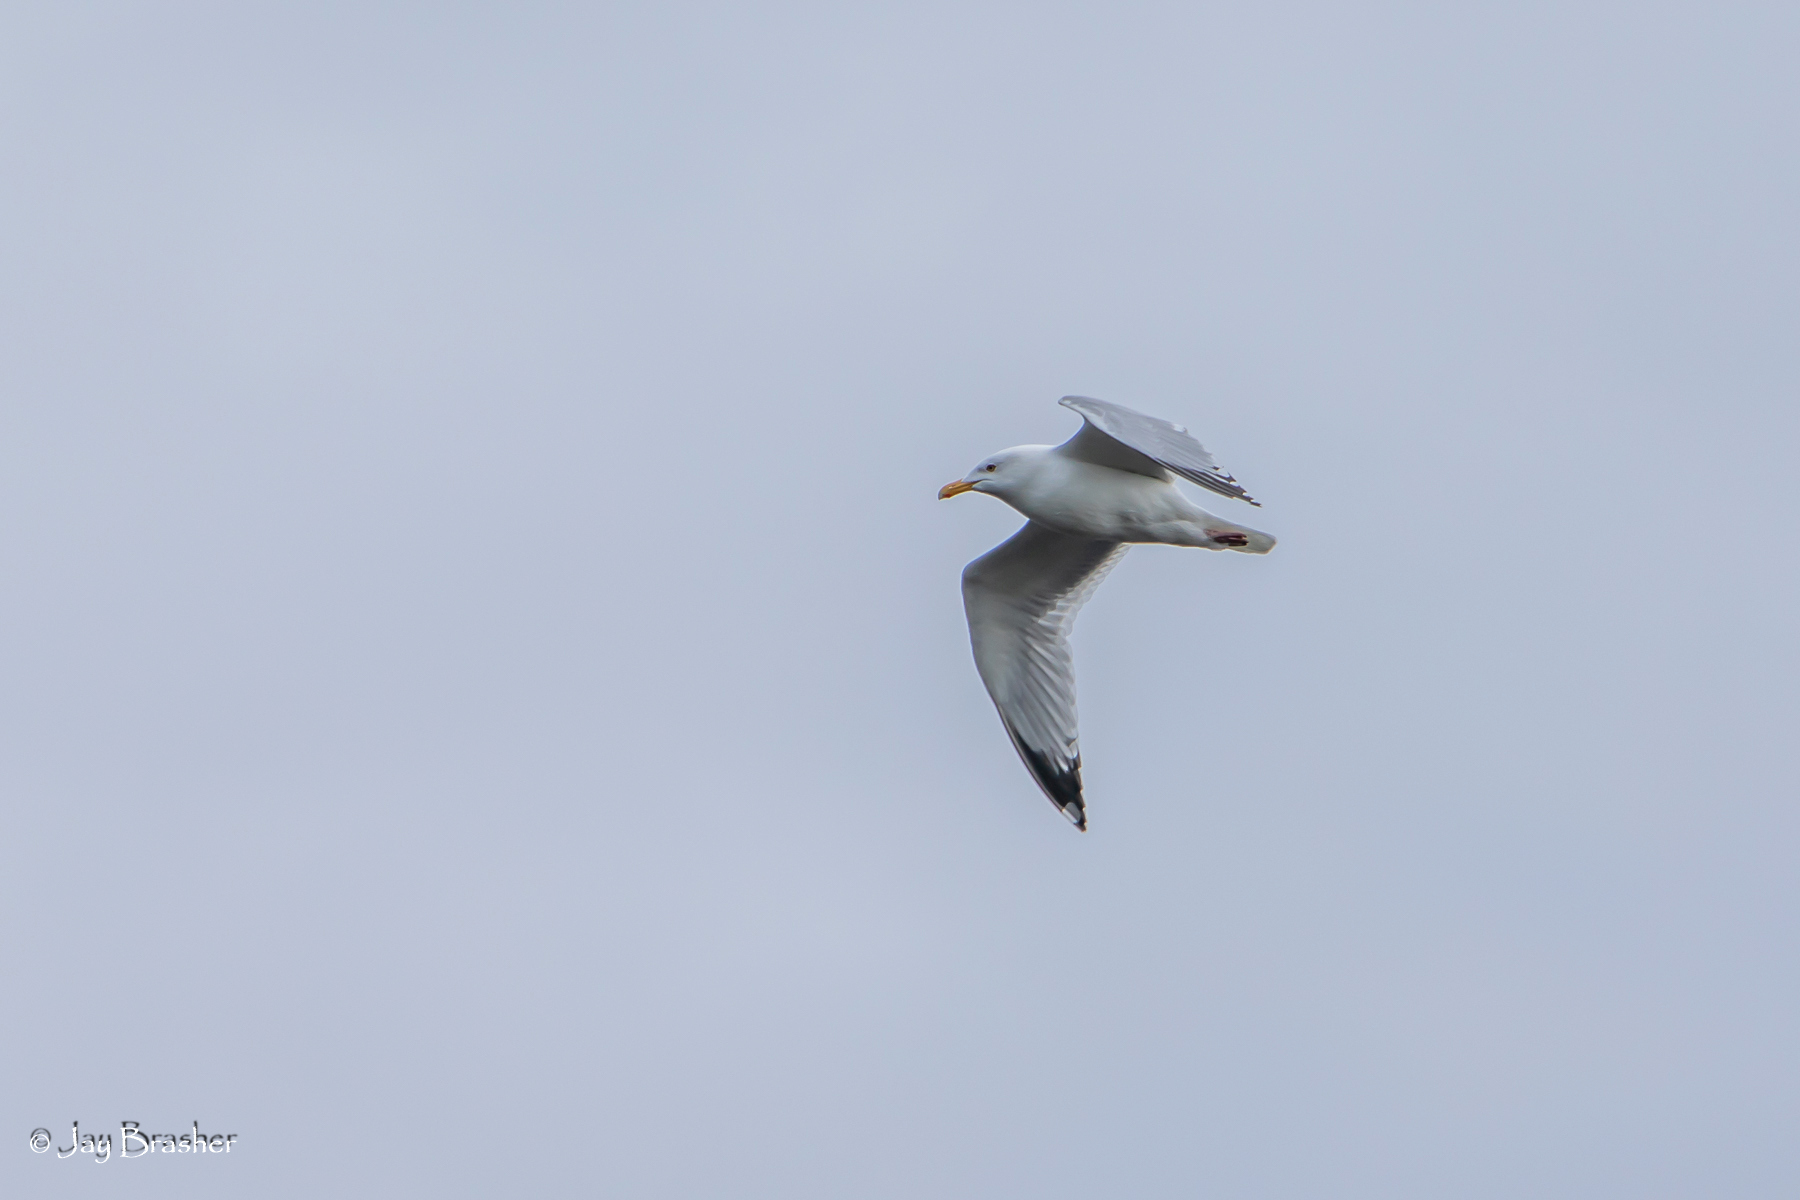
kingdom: Animalia
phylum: Chordata
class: Aves
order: Charadriiformes
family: Laridae
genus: Larus
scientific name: Larus argentatus
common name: Herring gull
